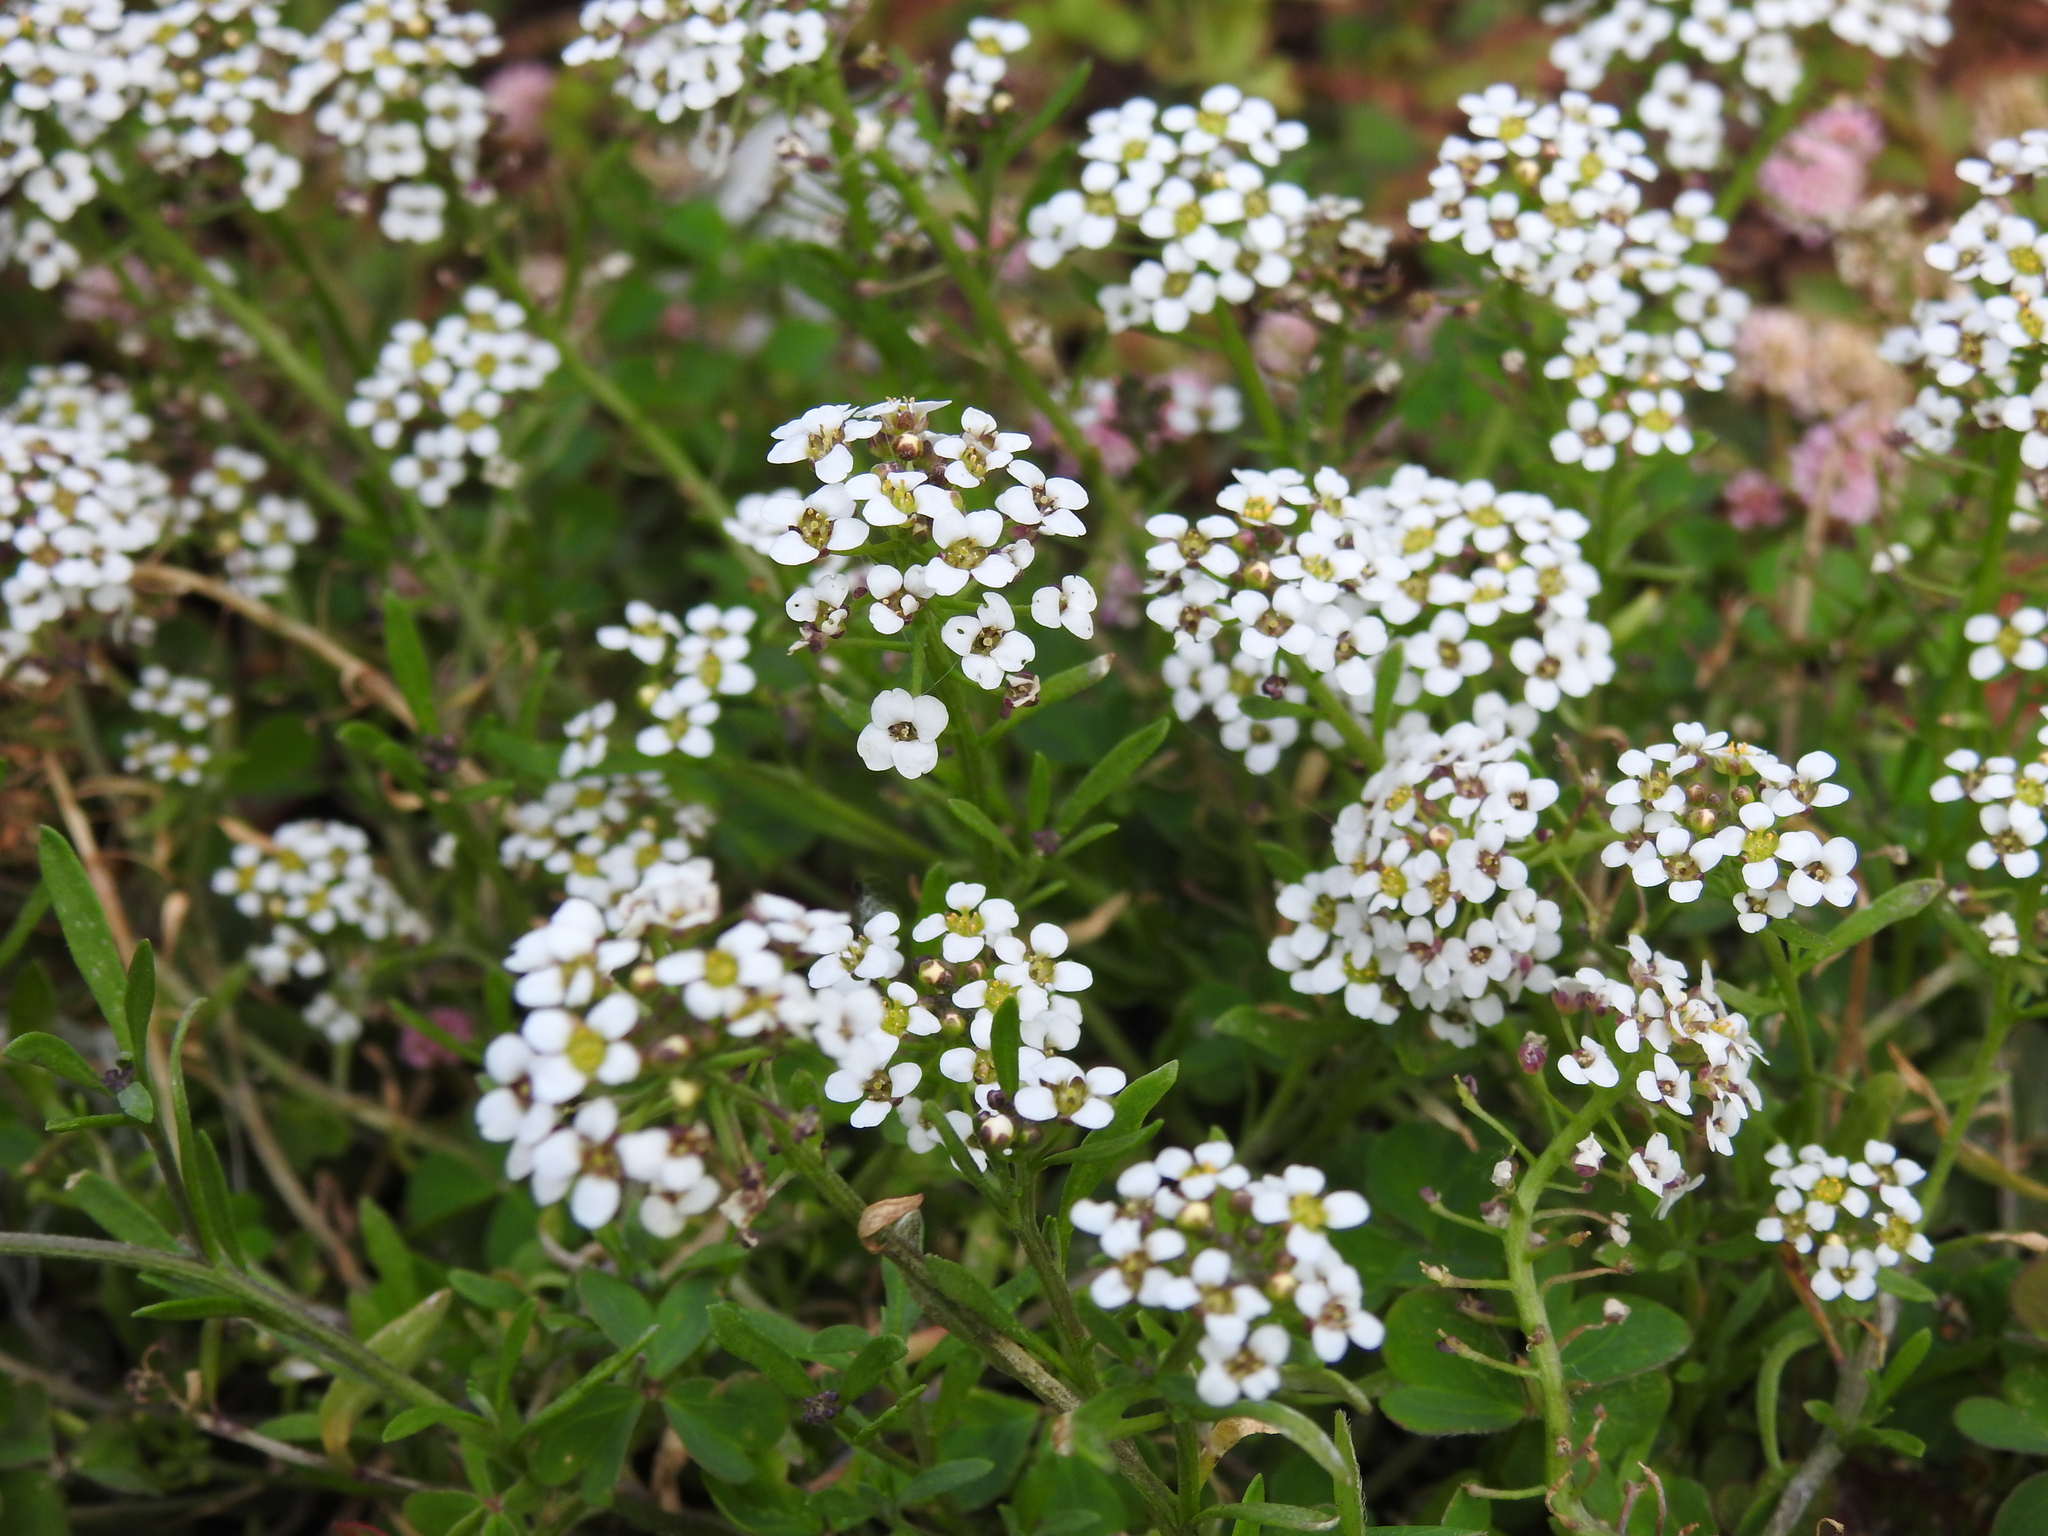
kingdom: Plantae
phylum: Tracheophyta
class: Magnoliopsida
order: Brassicales
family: Brassicaceae
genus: Lobularia
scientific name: Lobularia maritima
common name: Sweet alison
